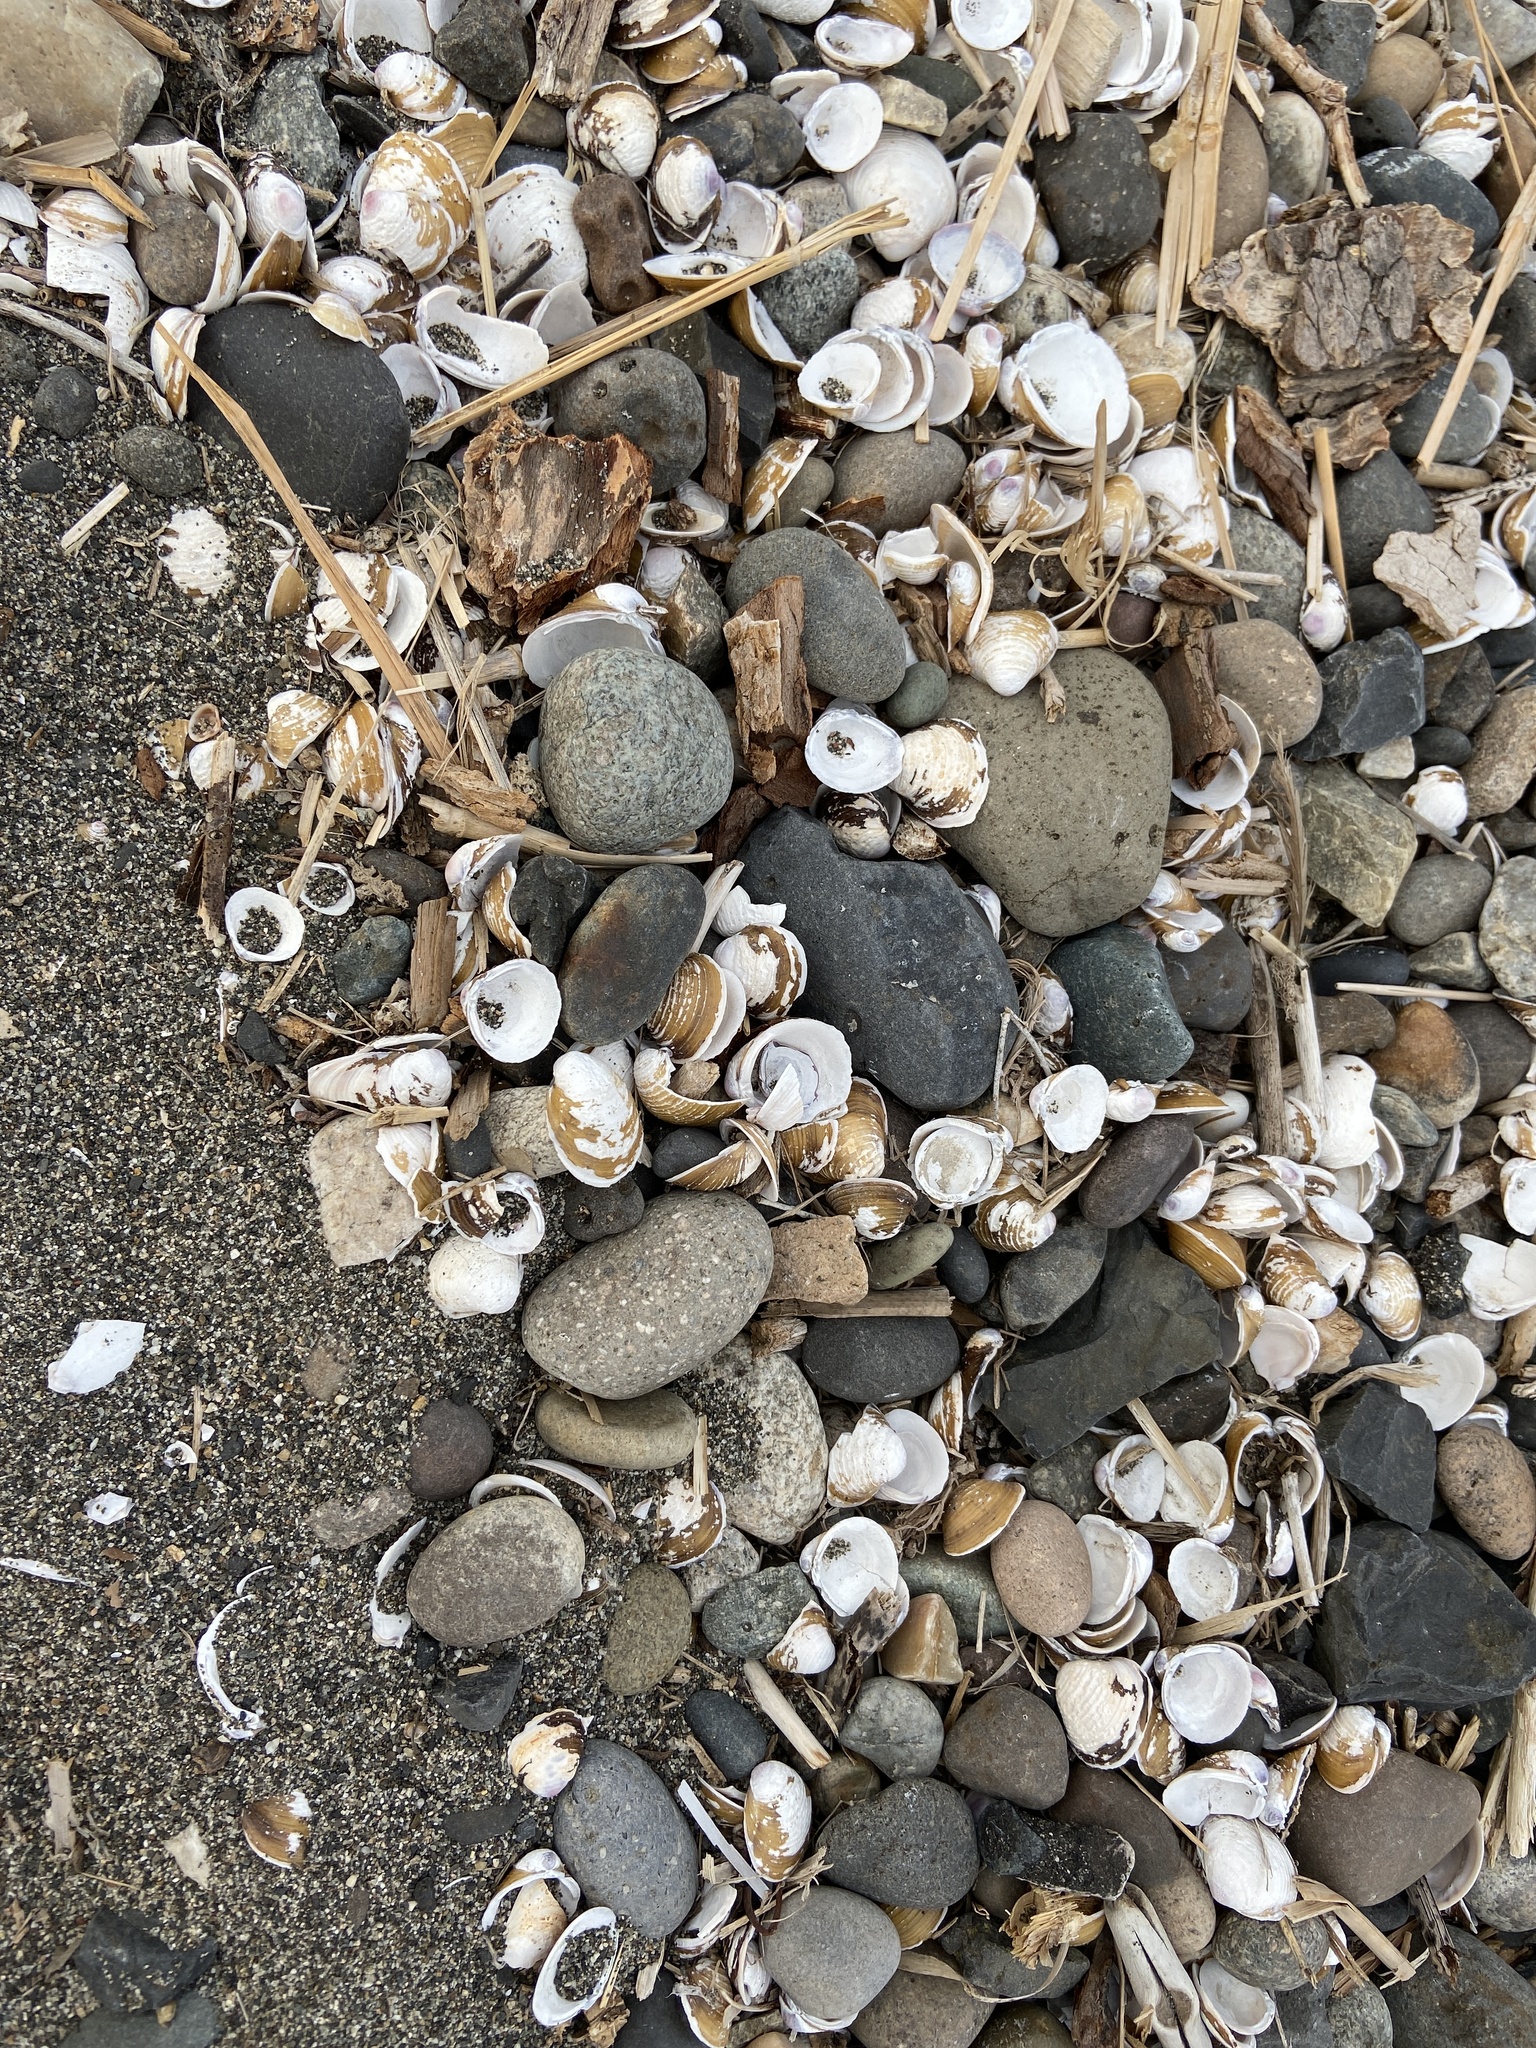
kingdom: Animalia
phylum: Mollusca
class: Bivalvia
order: Venerida
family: Cyrenidae
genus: Corbicula
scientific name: Corbicula fluminea
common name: Asian clam
